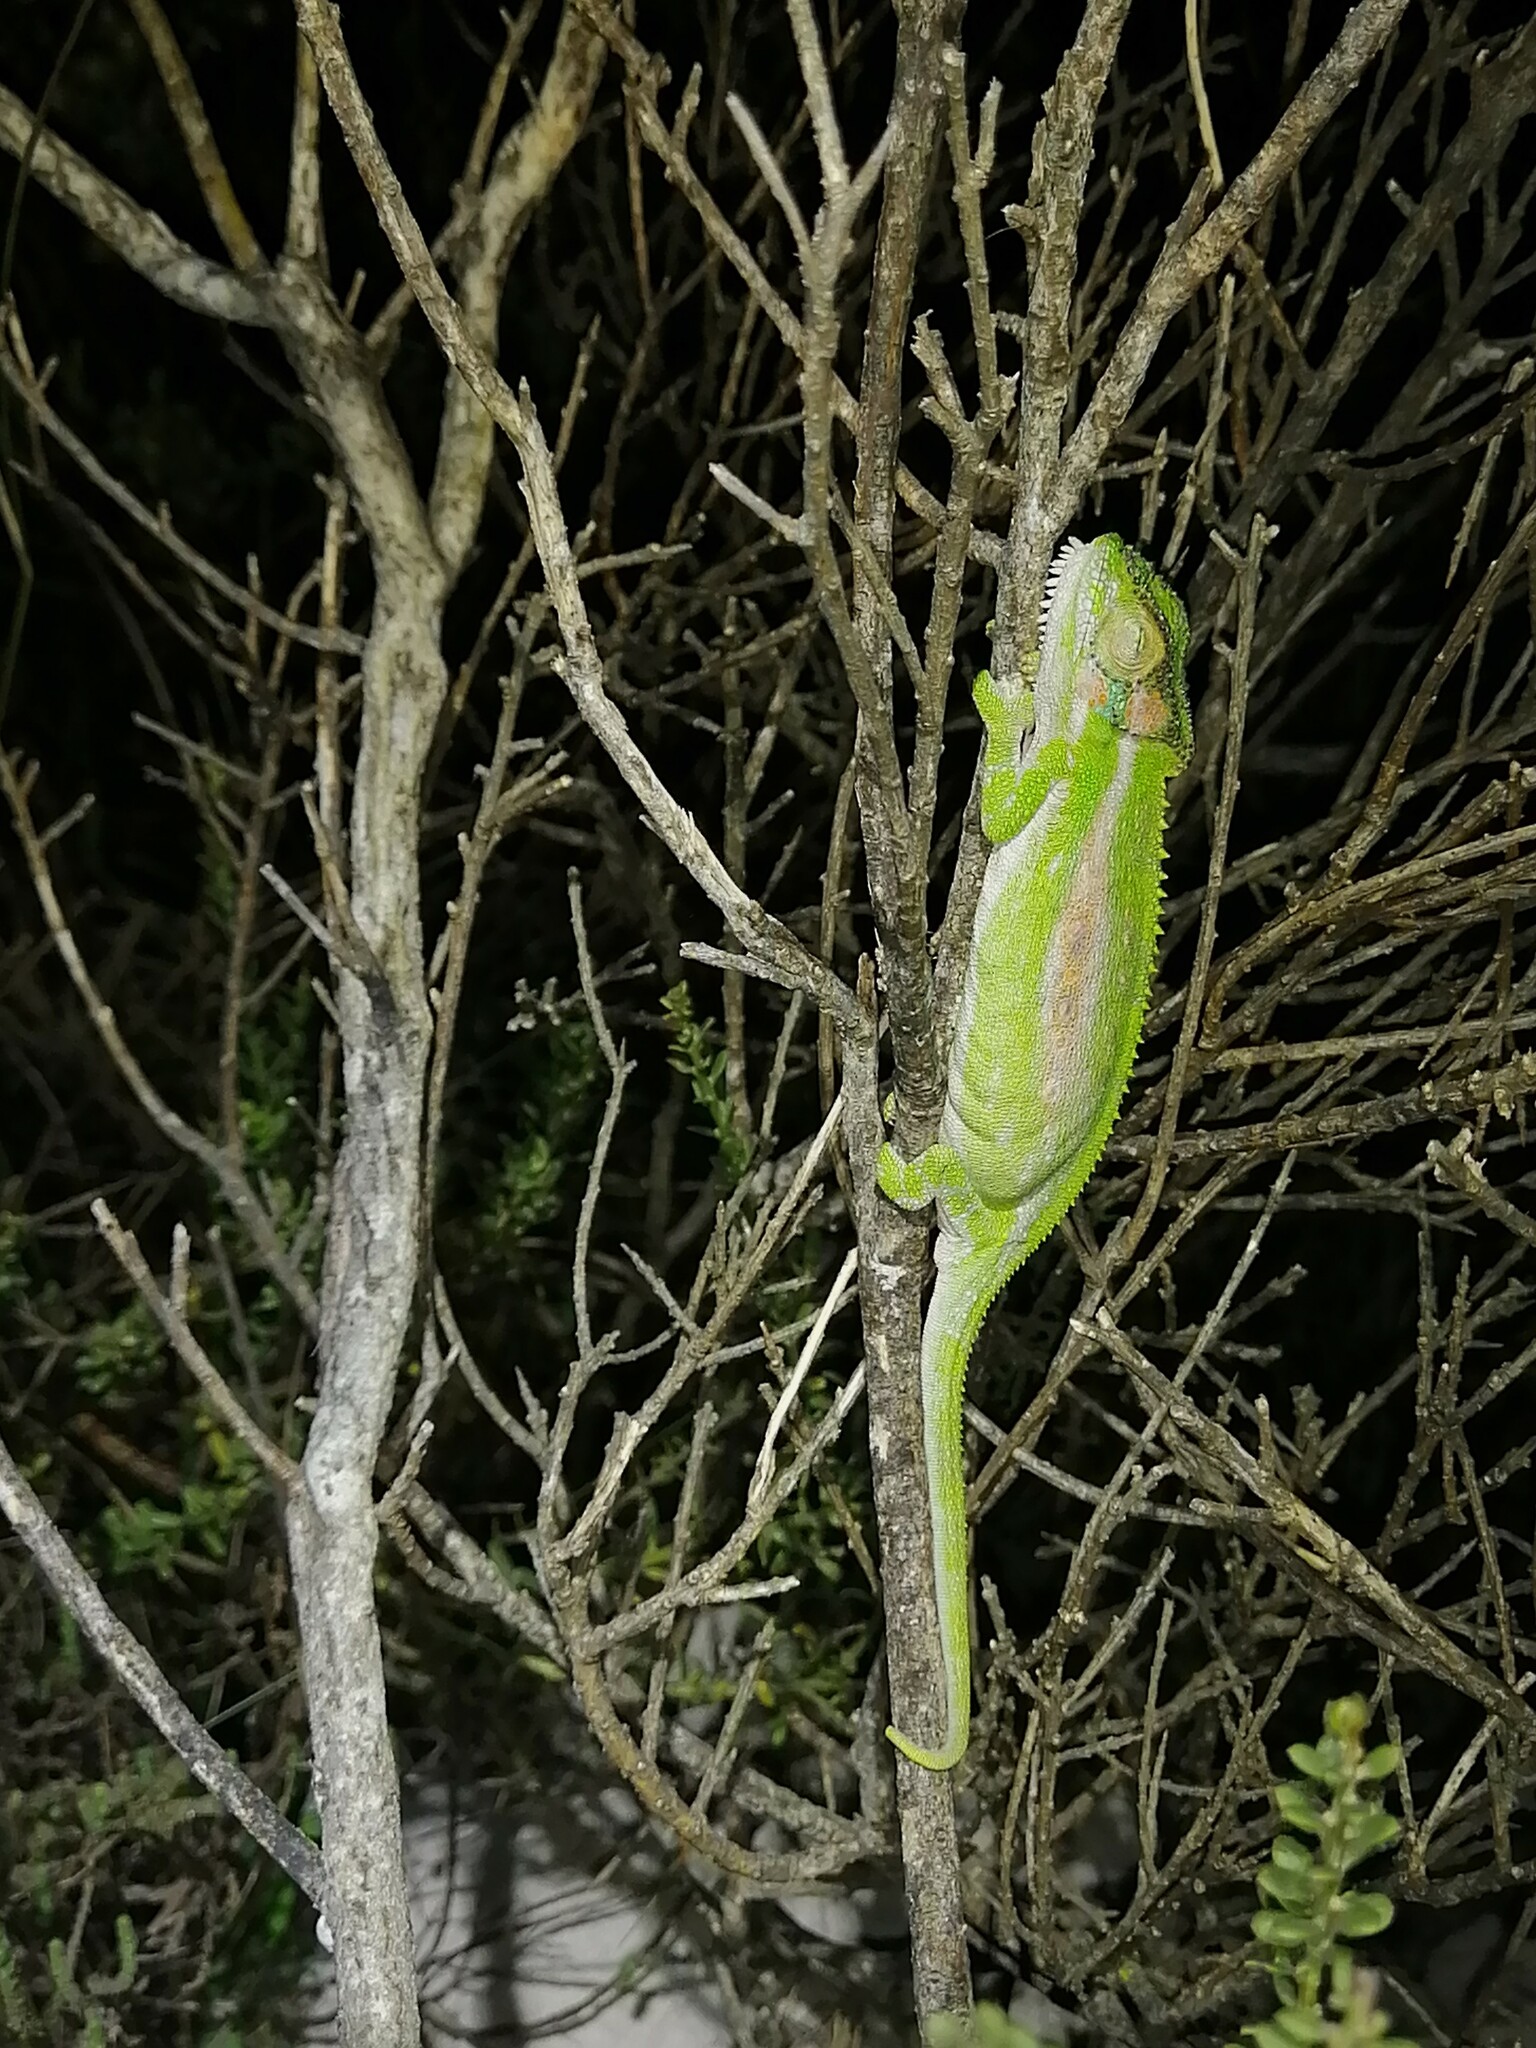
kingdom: Animalia
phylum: Chordata
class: Squamata
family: Chamaeleonidae
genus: Bradypodion
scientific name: Bradypodion pumilum
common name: Cape dwarf chameleon
